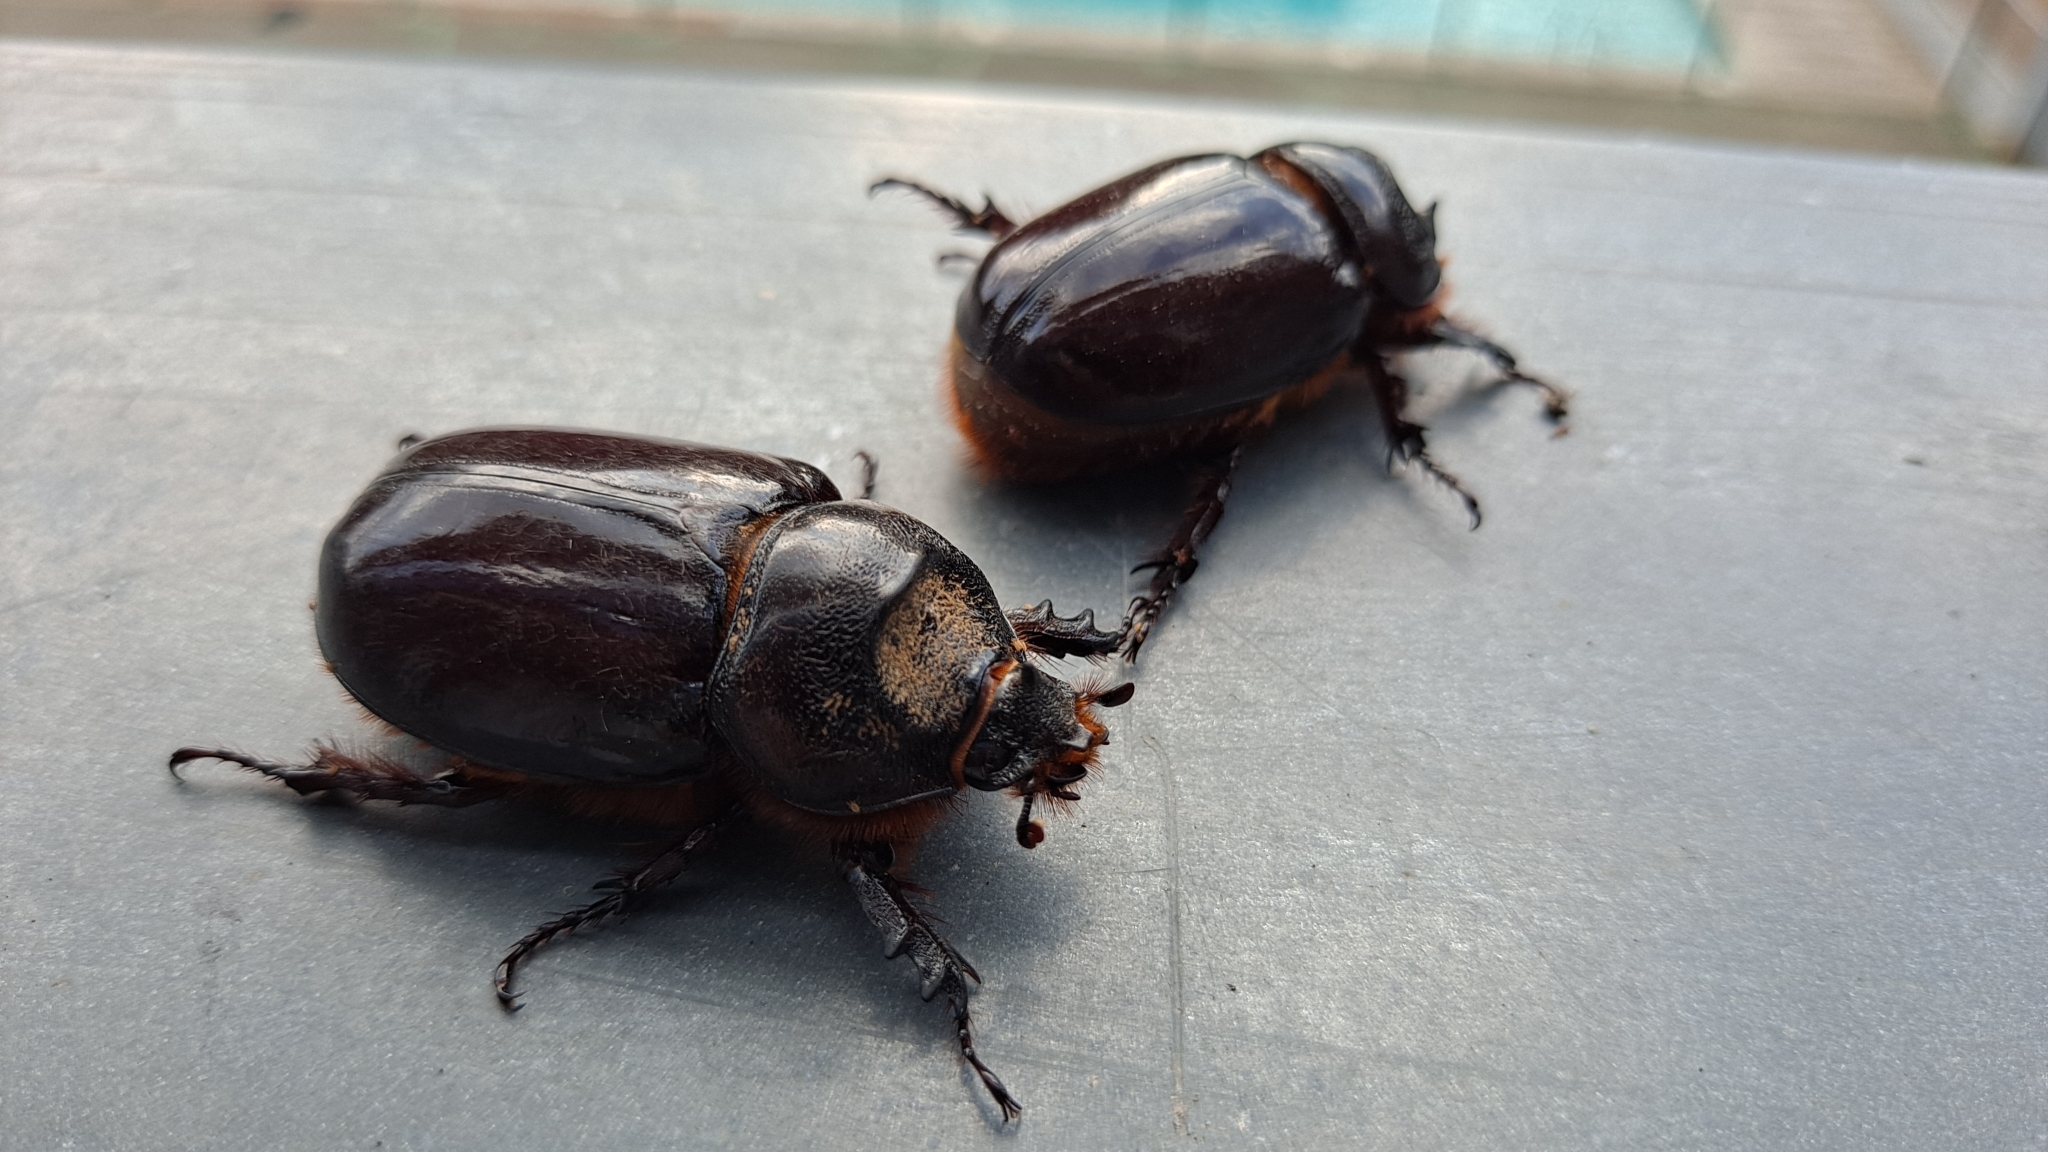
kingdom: Animalia
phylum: Arthropoda
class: Insecta
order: Coleoptera
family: Scarabaeidae
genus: Oryctes
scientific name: Oryctes nasicornis
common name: European rhinoceros beetle
